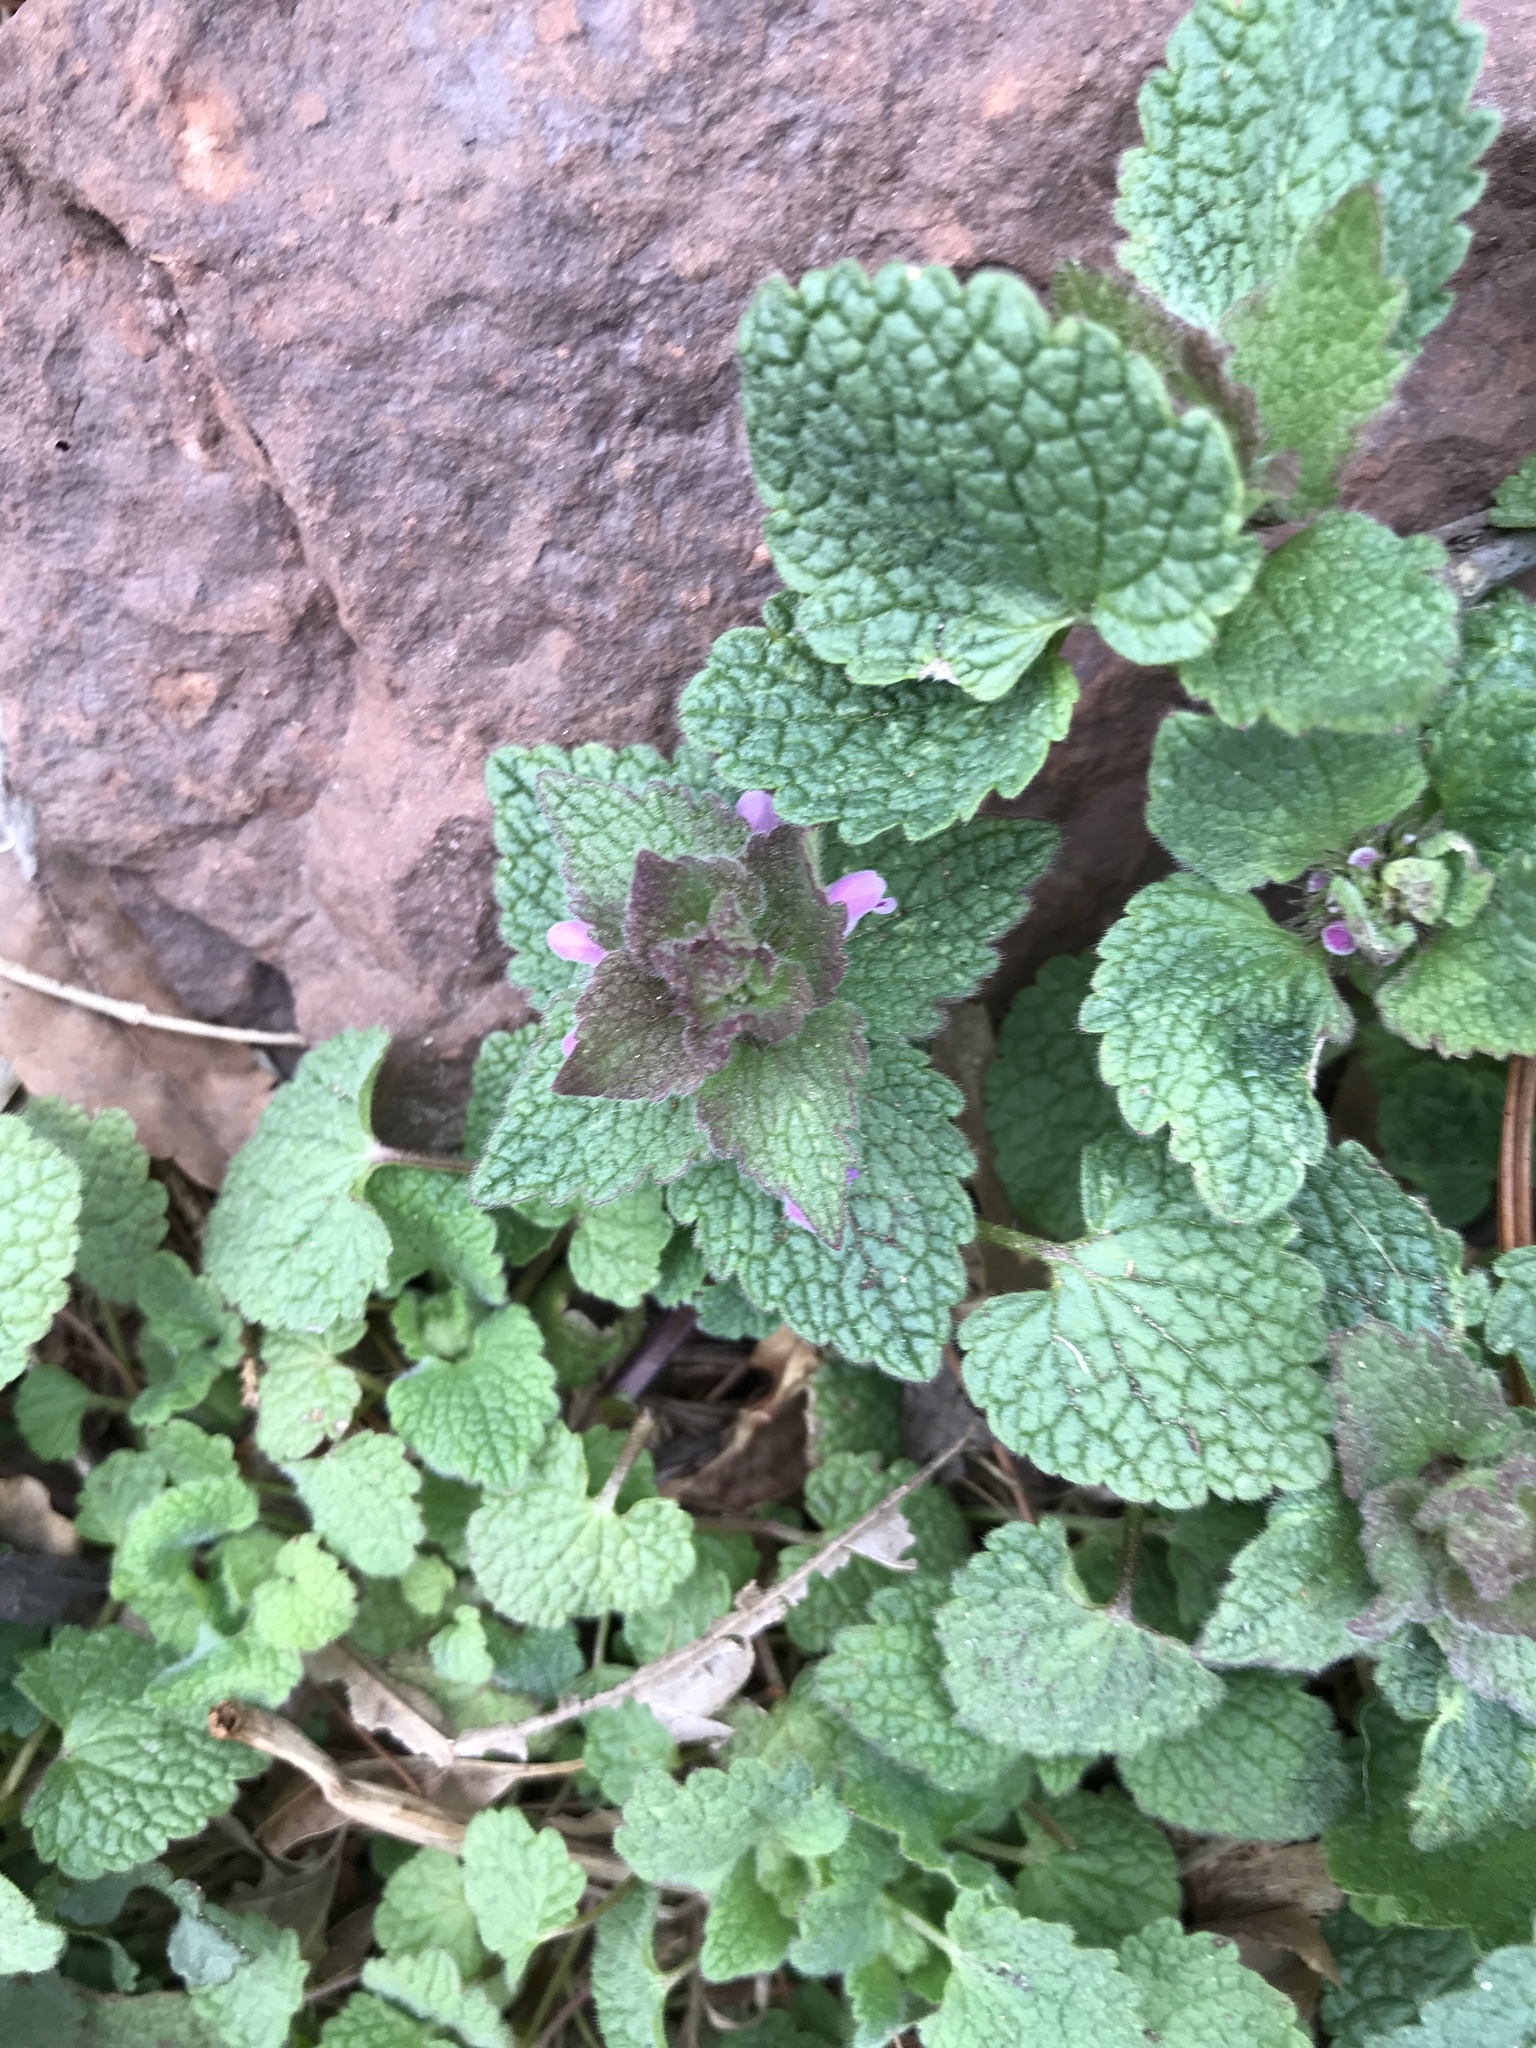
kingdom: Plantae
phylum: Tracheophyta
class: Magnoliopsida
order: Lamiales
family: Lamiaceae
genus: Lamium
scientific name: Lamium purpureum
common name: Red dead-nettle
